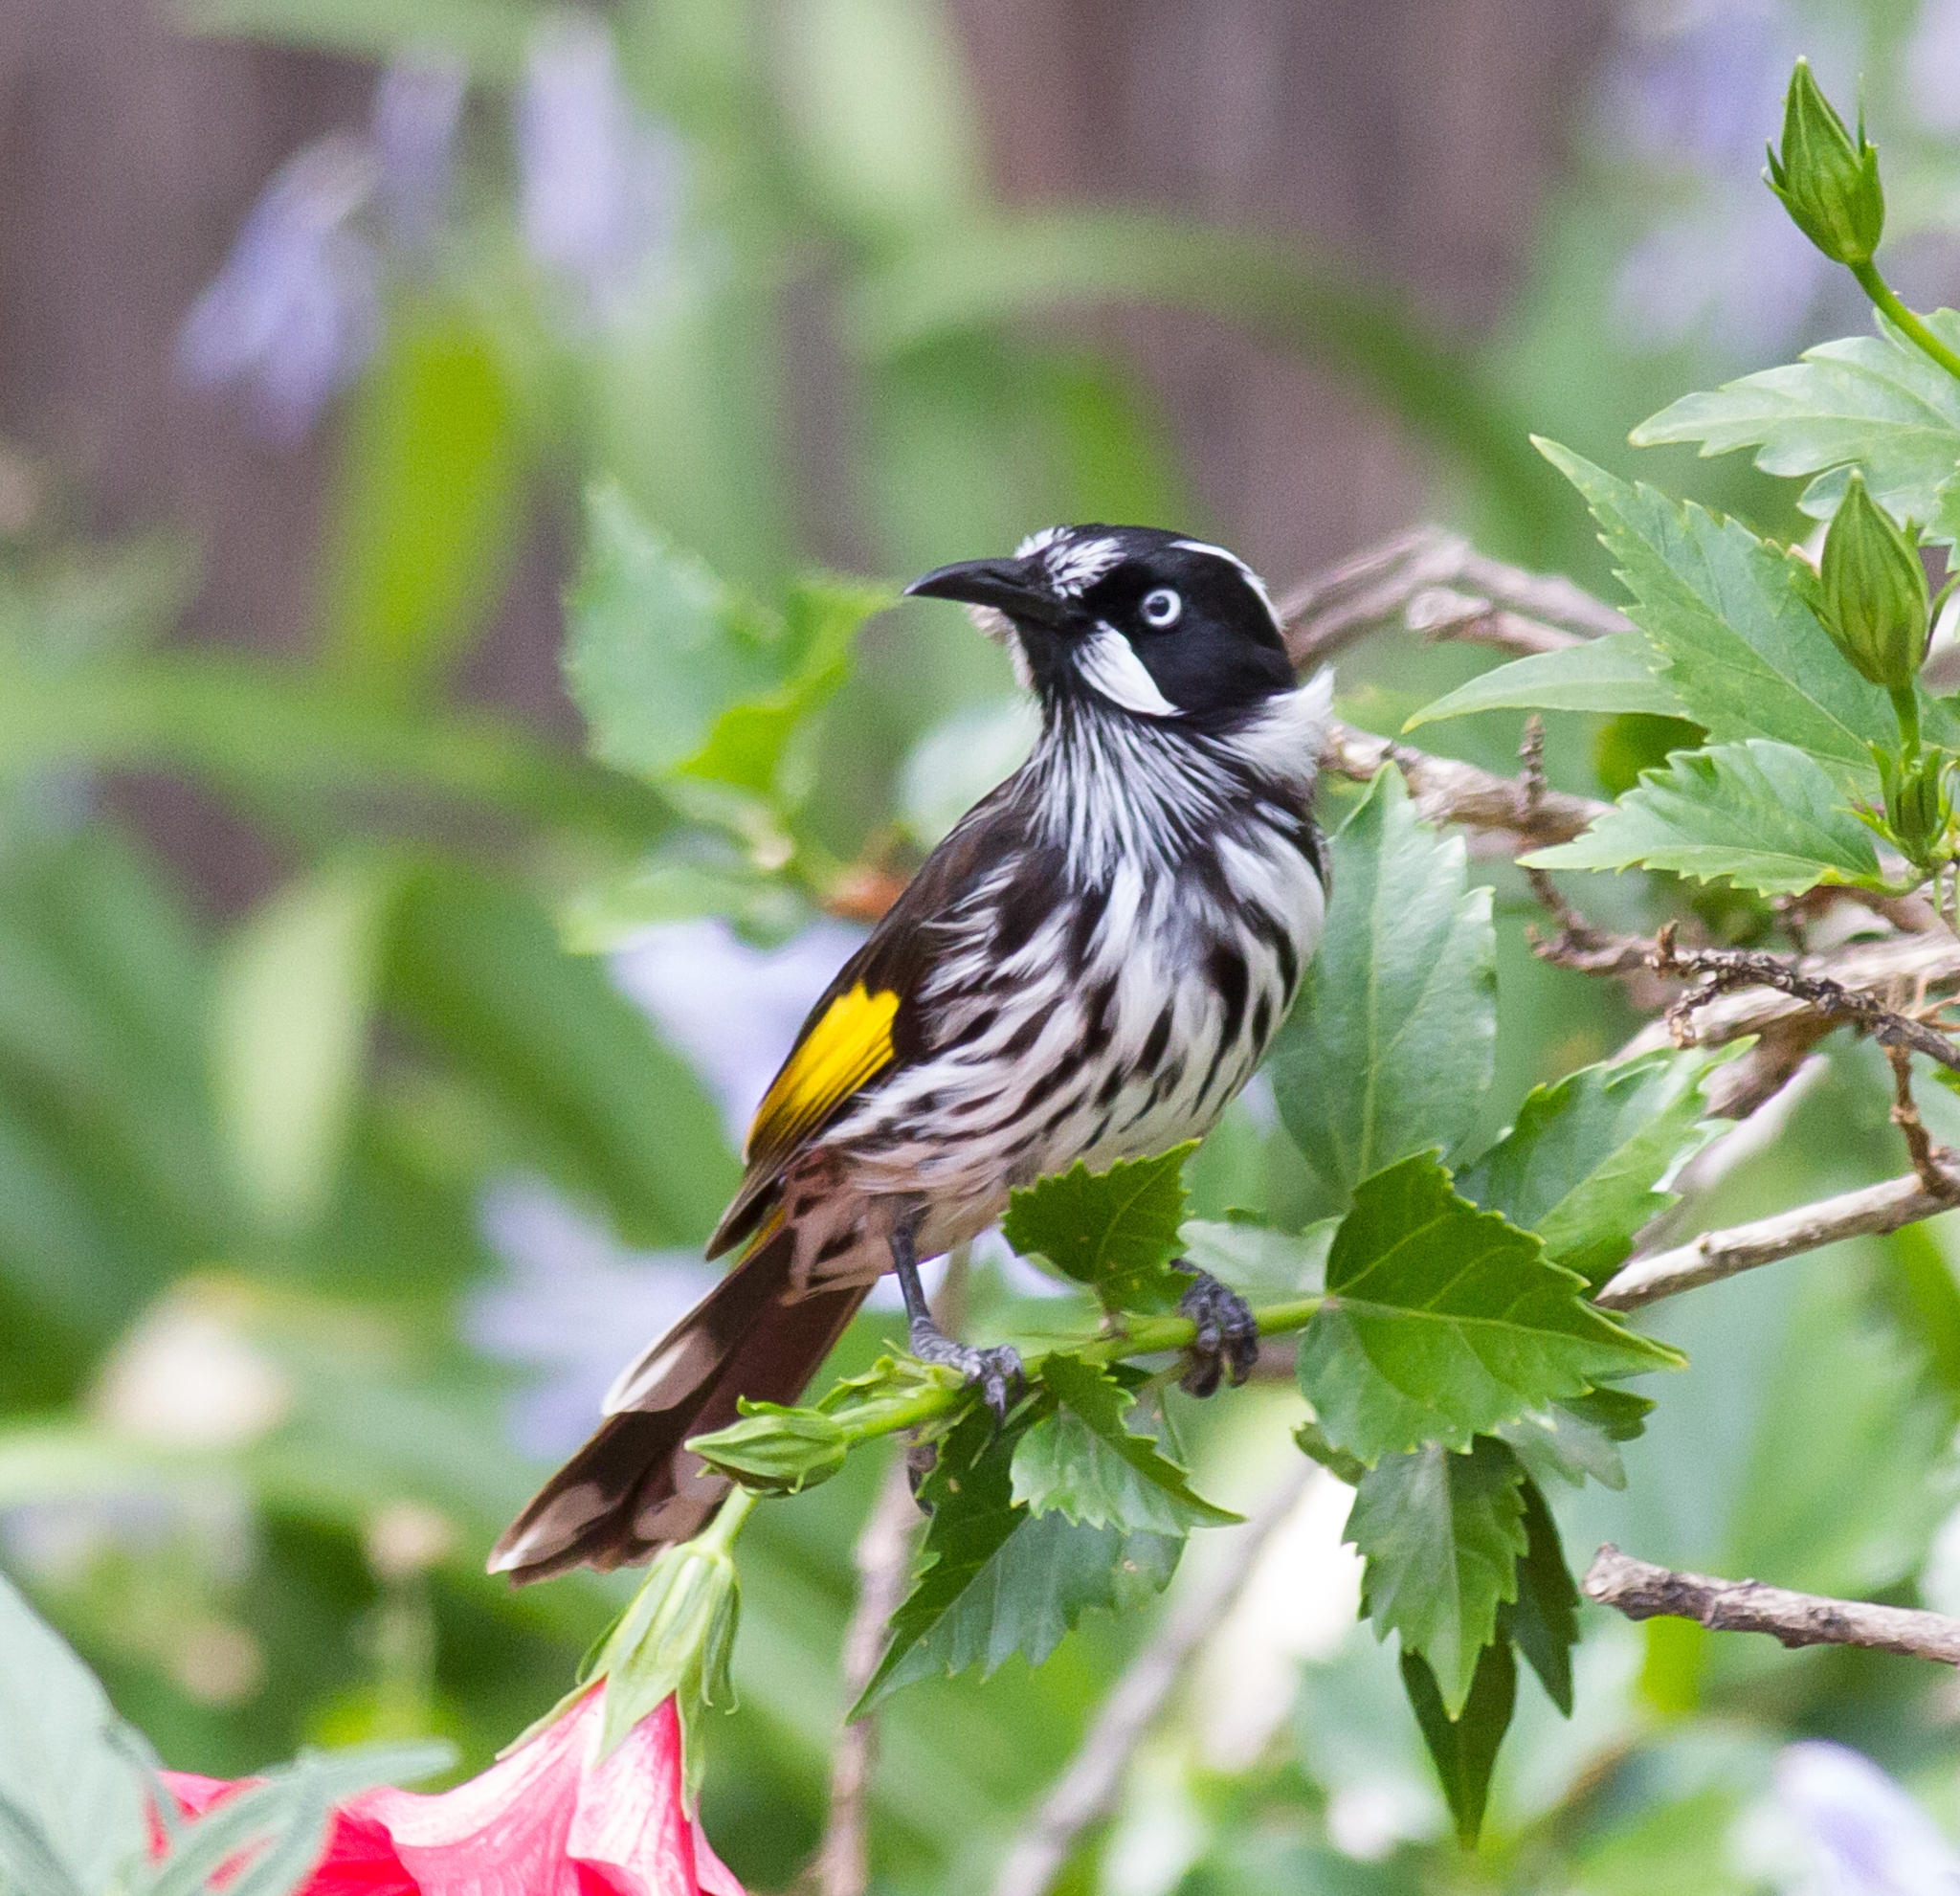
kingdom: Animalia
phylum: Chordata
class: Aves
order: Passeriformes
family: Meliphagidae
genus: Phylidonyris
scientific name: Phylidonyris novaehollandiae
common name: New holland honeyeater
